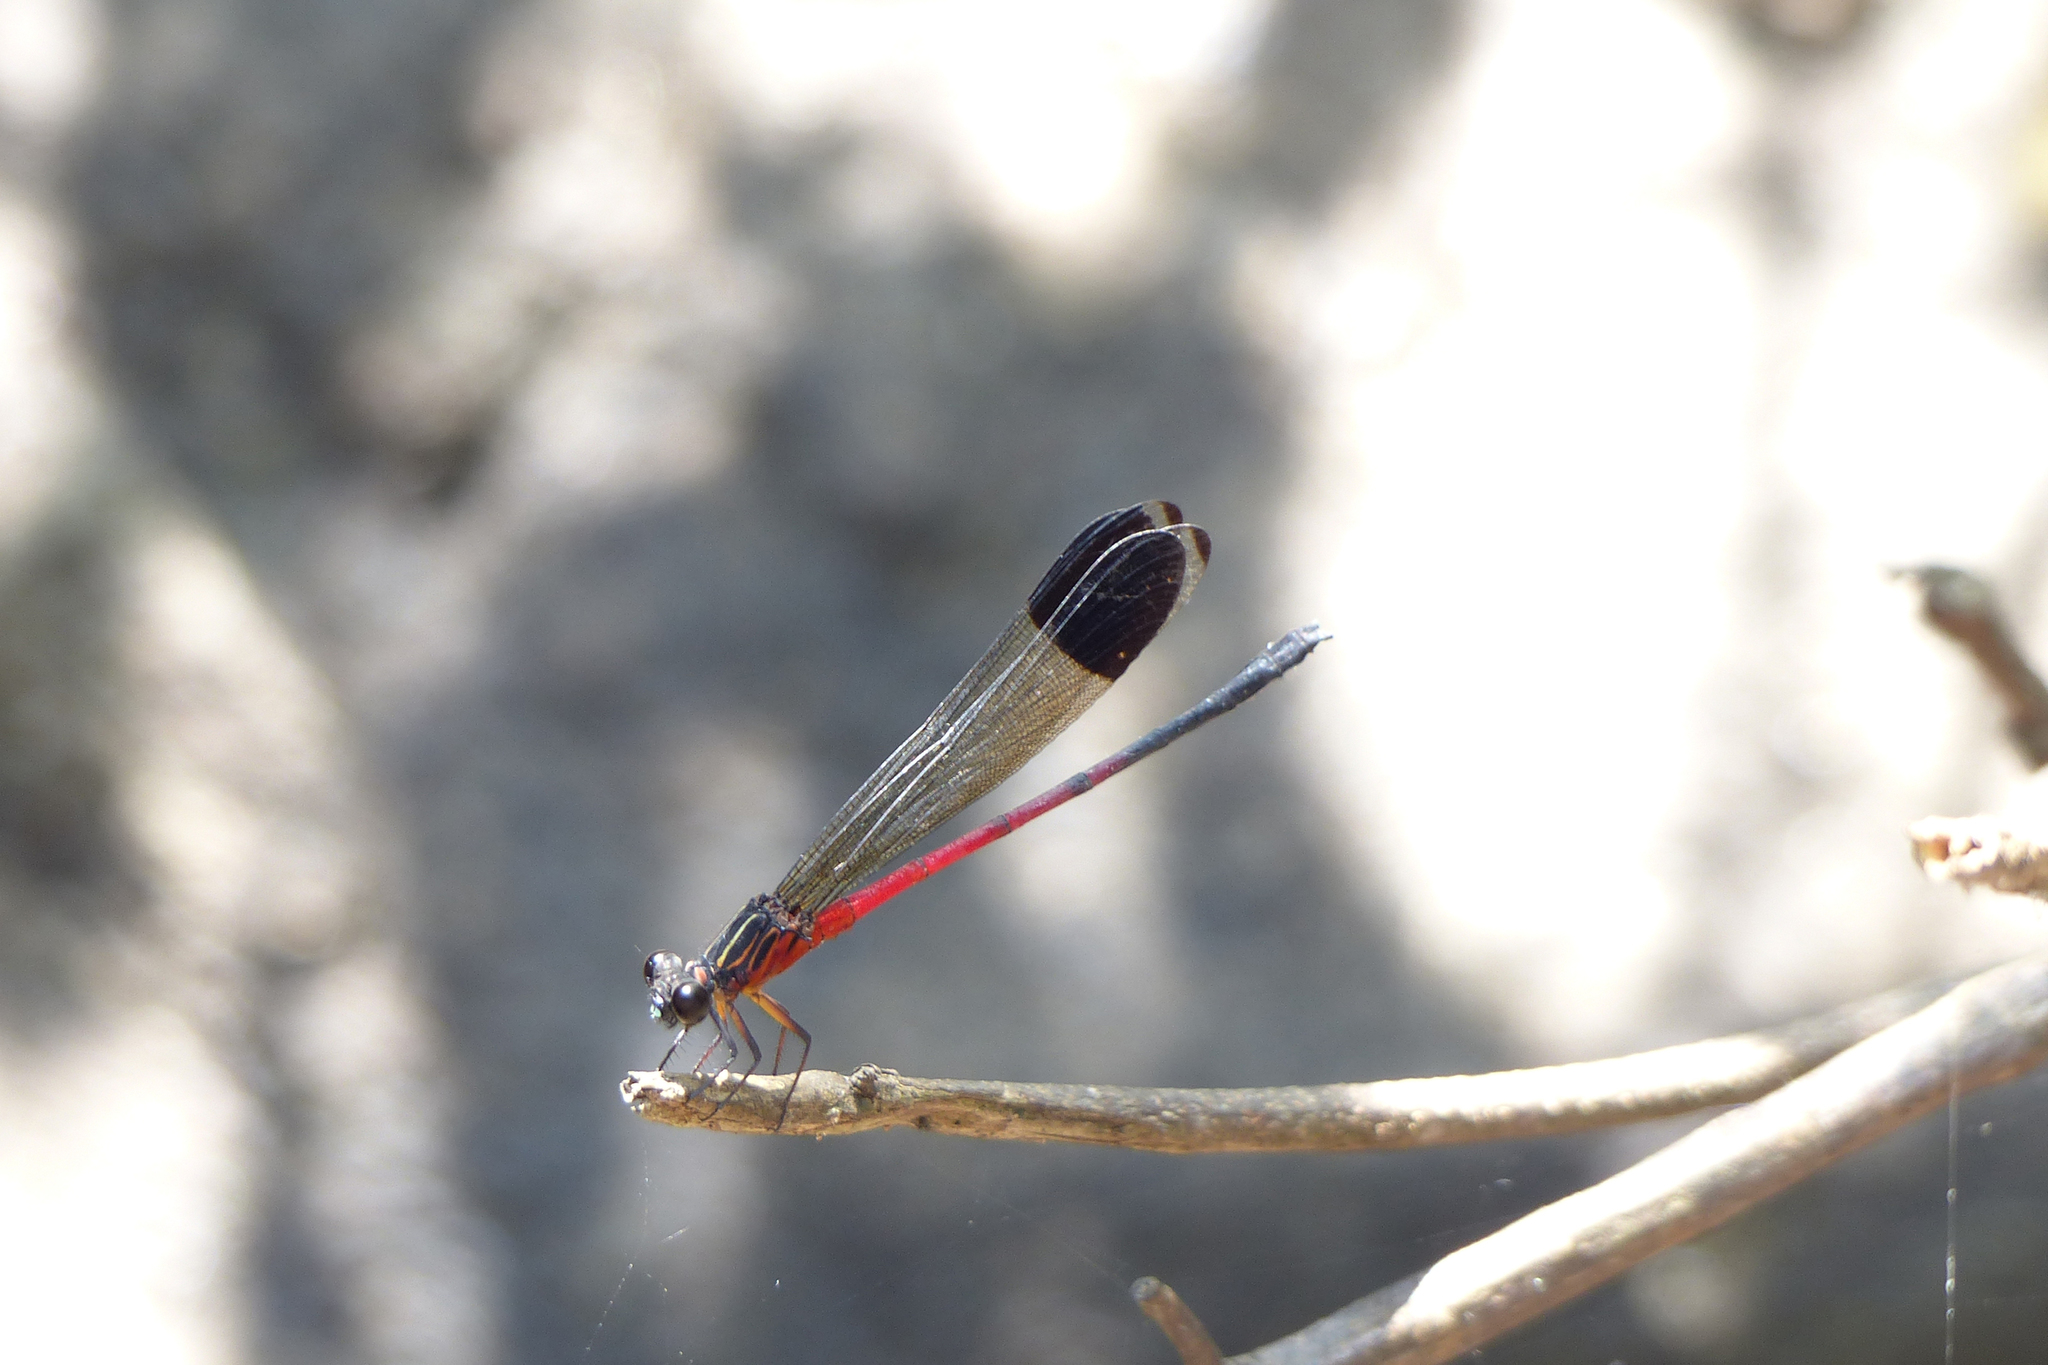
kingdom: Animalia
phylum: Arthropoda
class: Insecta
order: Odonata
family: Euphaeidae
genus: Euphaea
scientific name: Euphaea dispar
